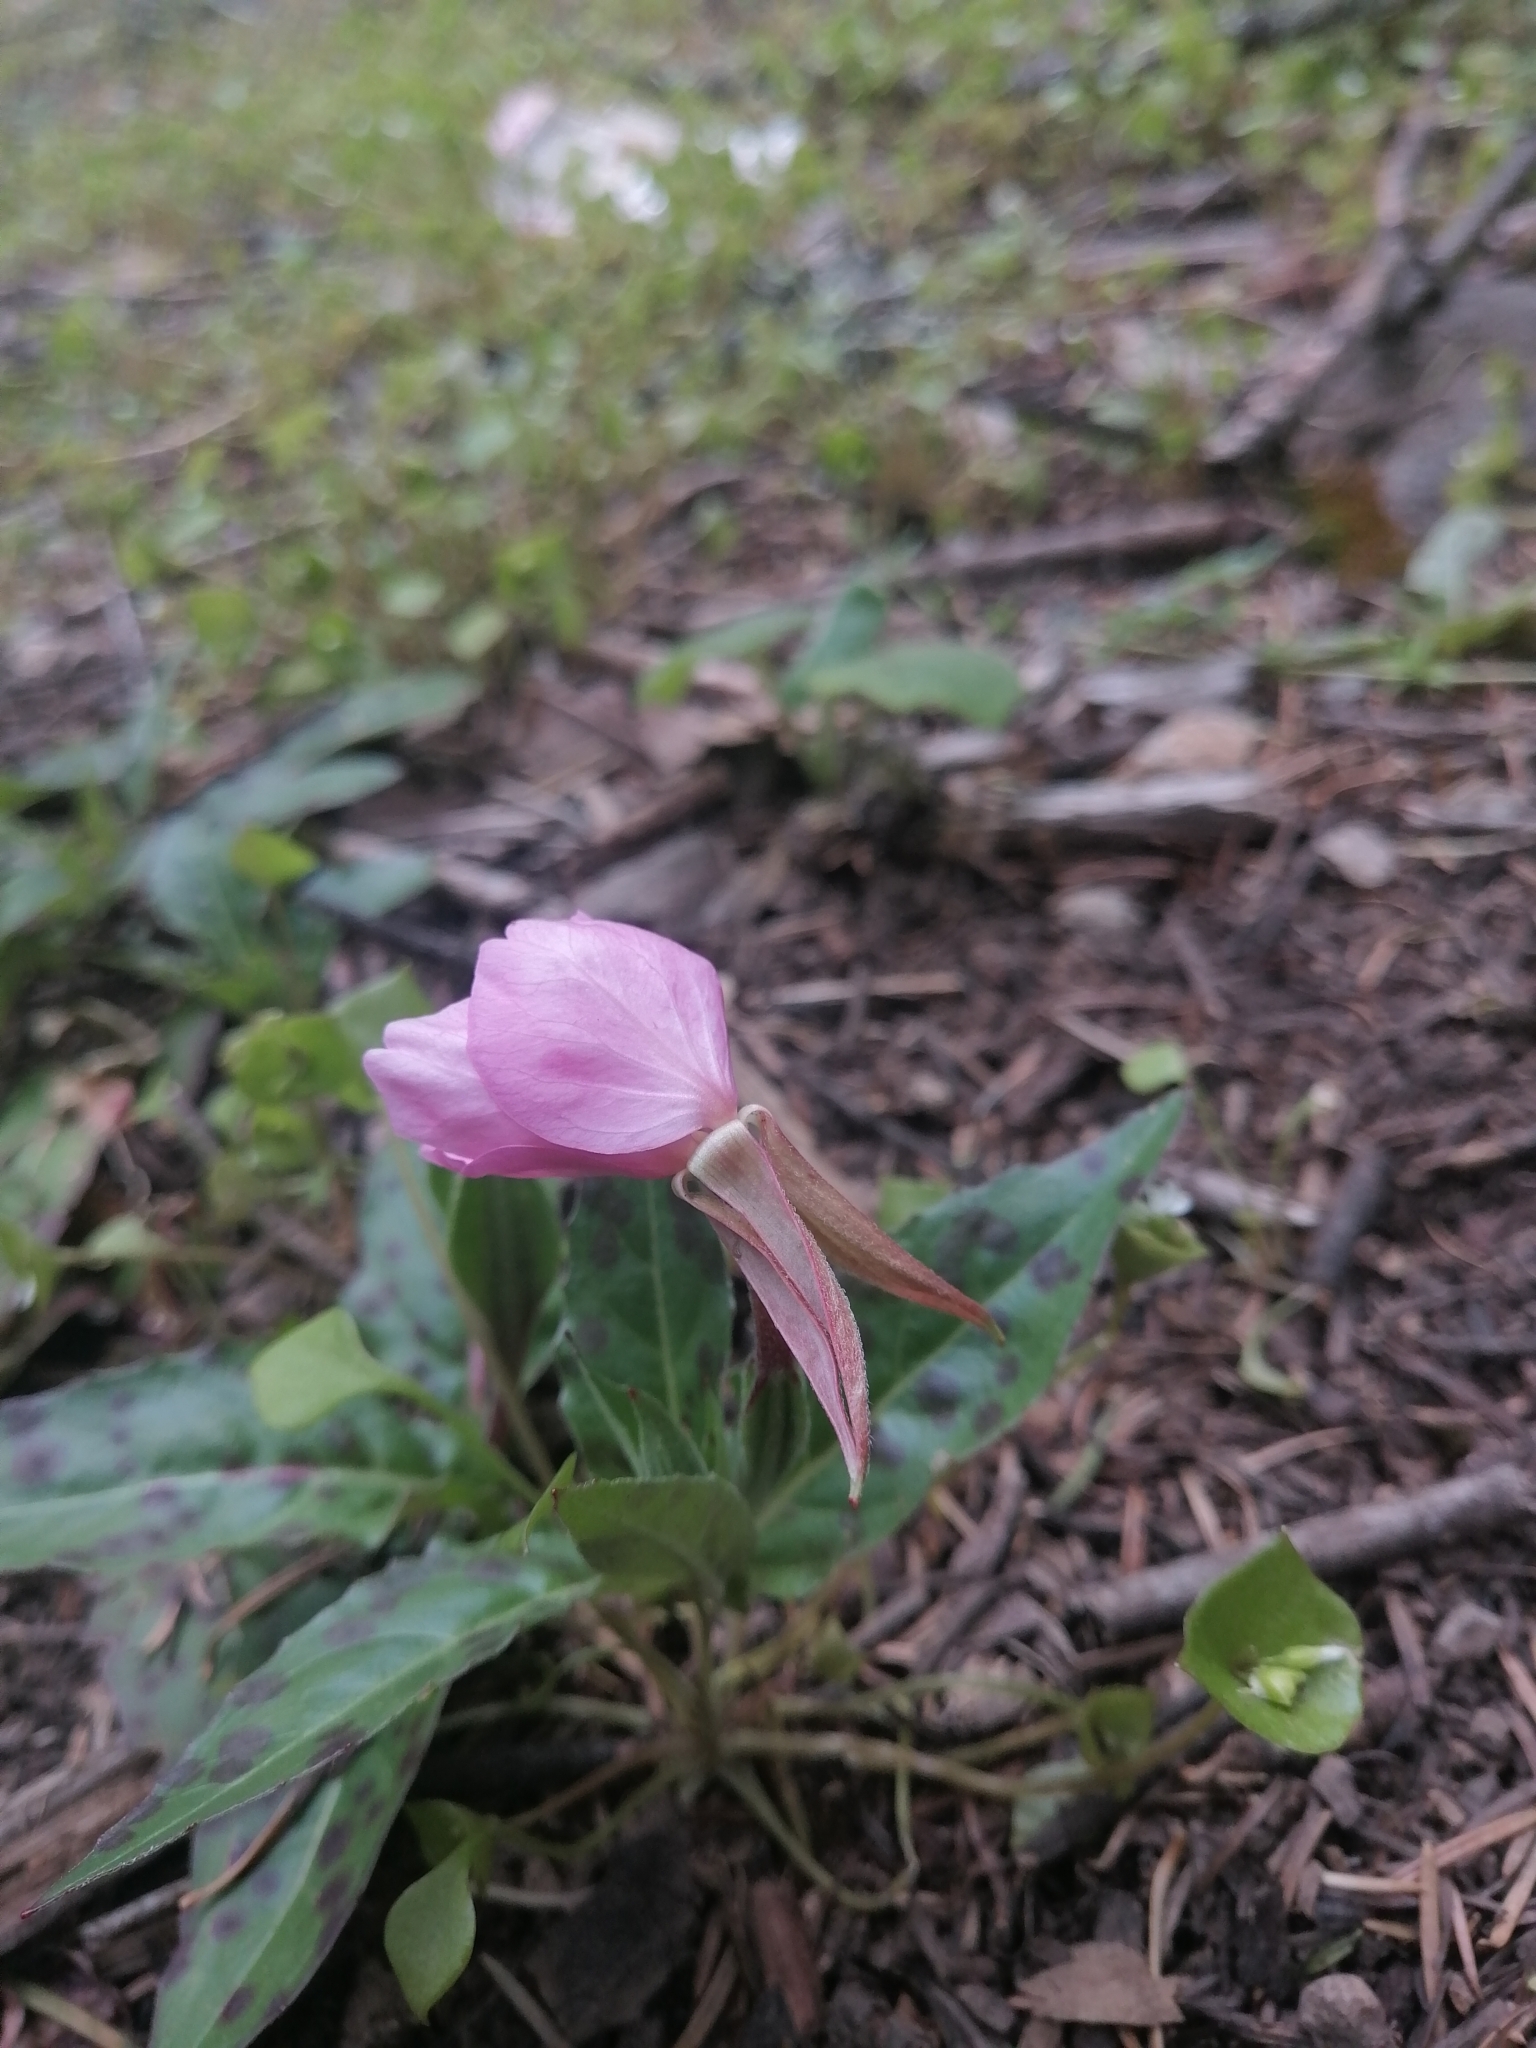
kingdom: Plantae
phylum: Tracheophyta
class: Magnoliopsida
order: Myrtales
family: Onagraceae
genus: Oenothera
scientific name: Oenothera tetraptera
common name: Four-wing evening-primrose
